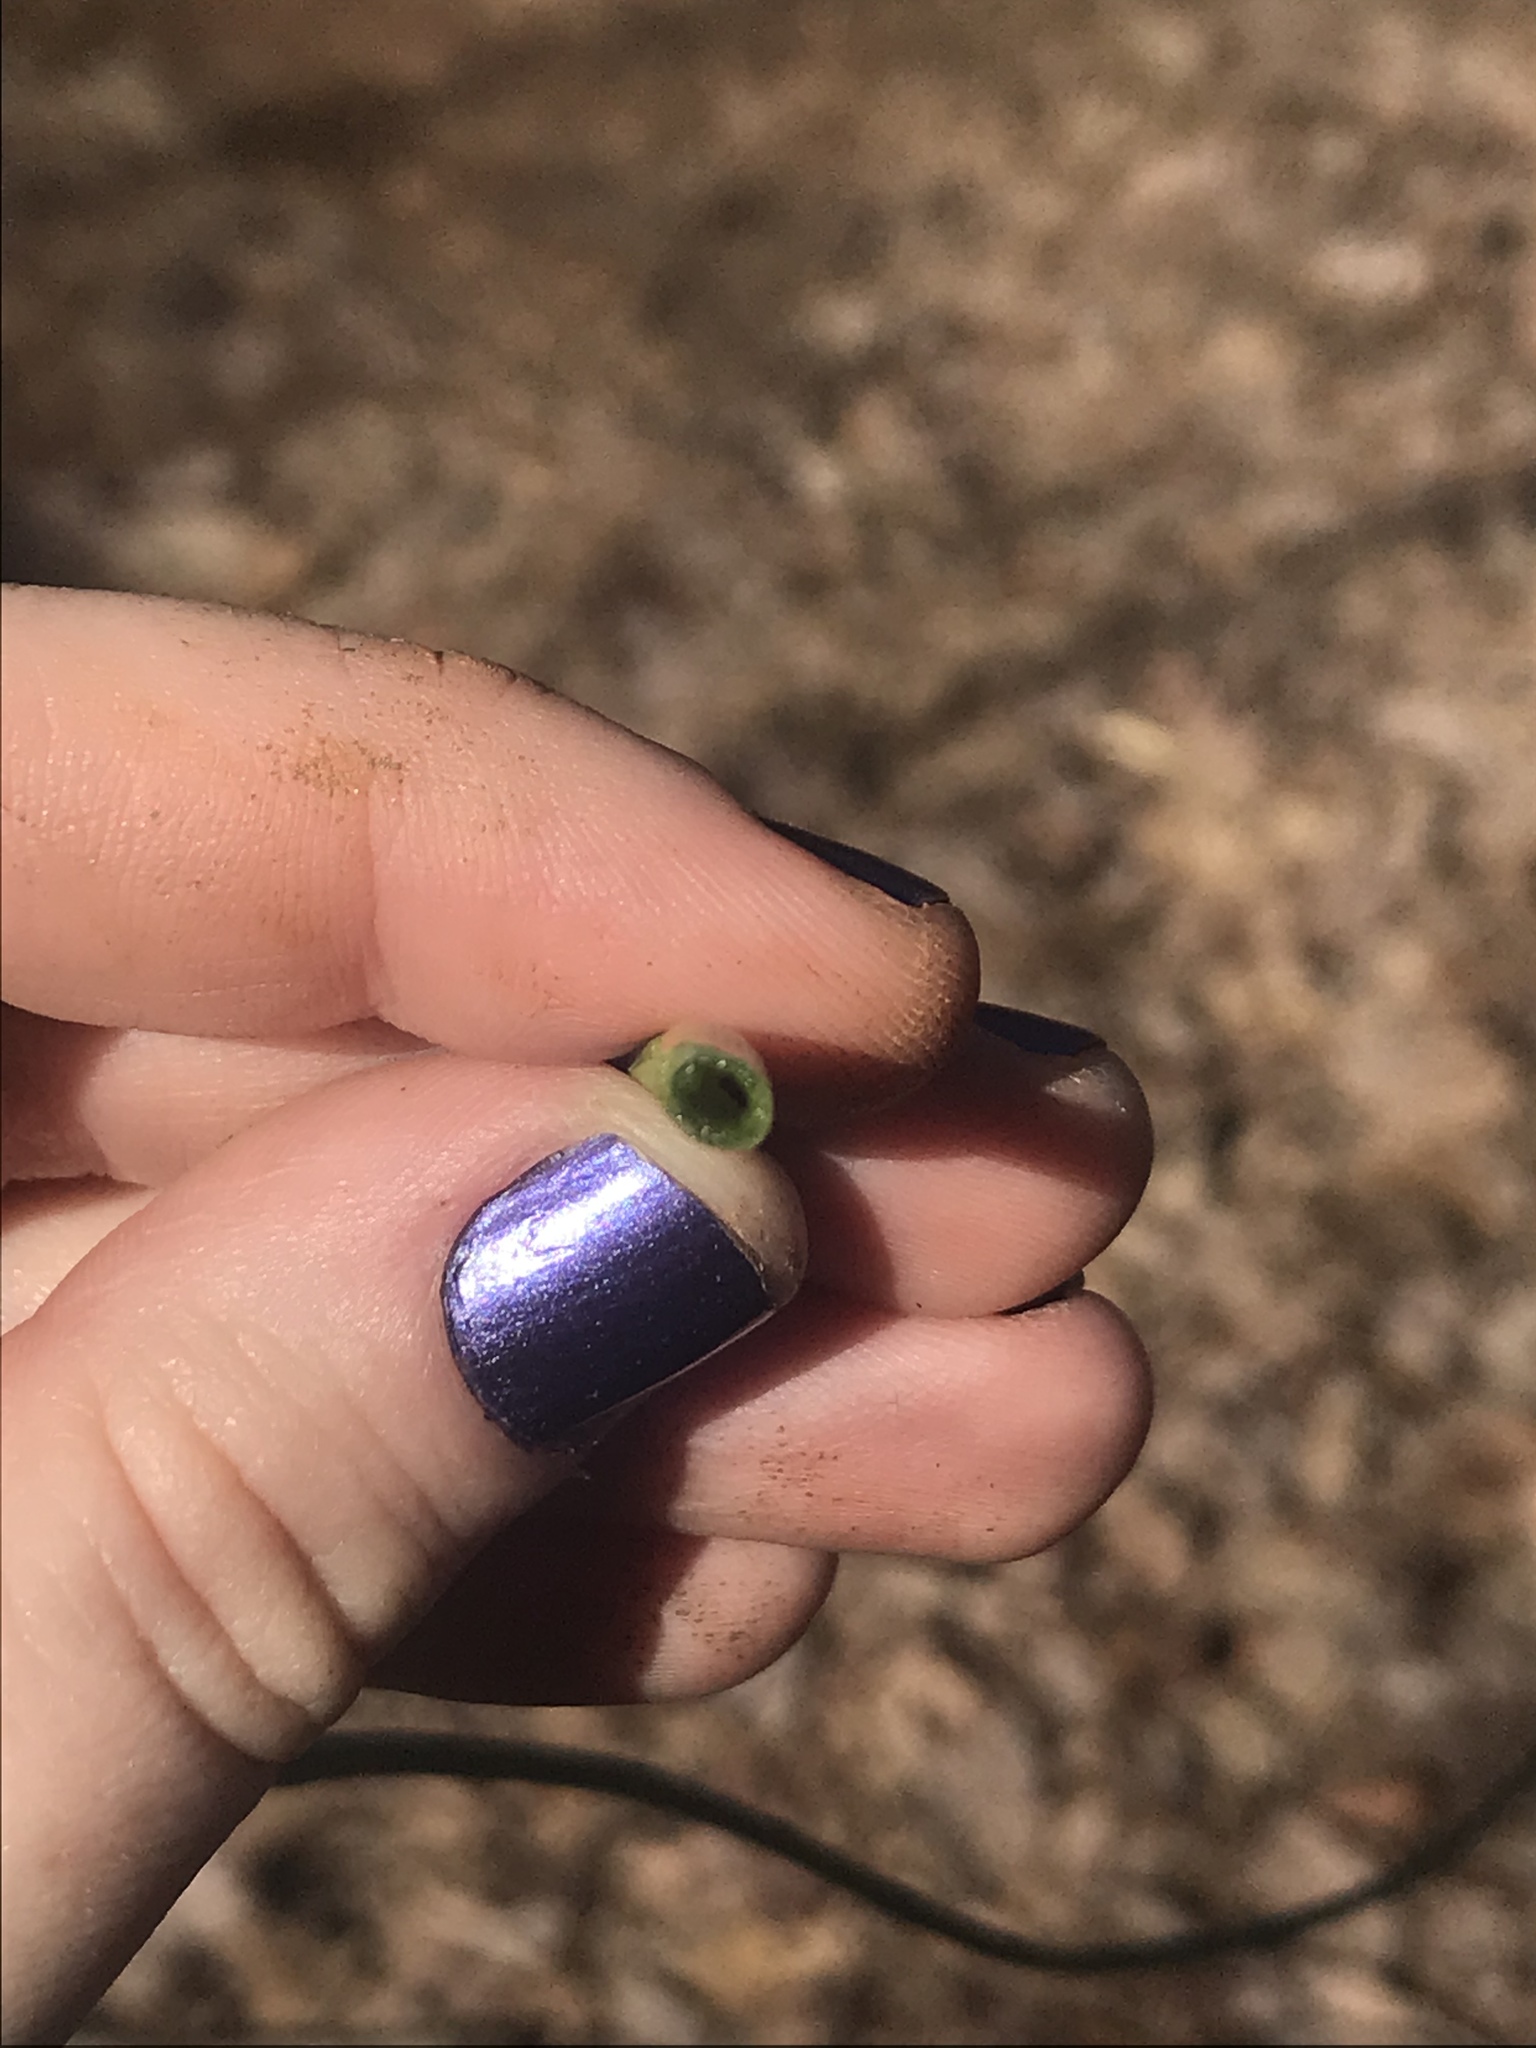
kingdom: Plantae
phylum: Tracheophyta
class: Liliopsida
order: Asparagales
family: Amaryllidaceae
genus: Allium
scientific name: Allium vineale
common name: Crow garlic
